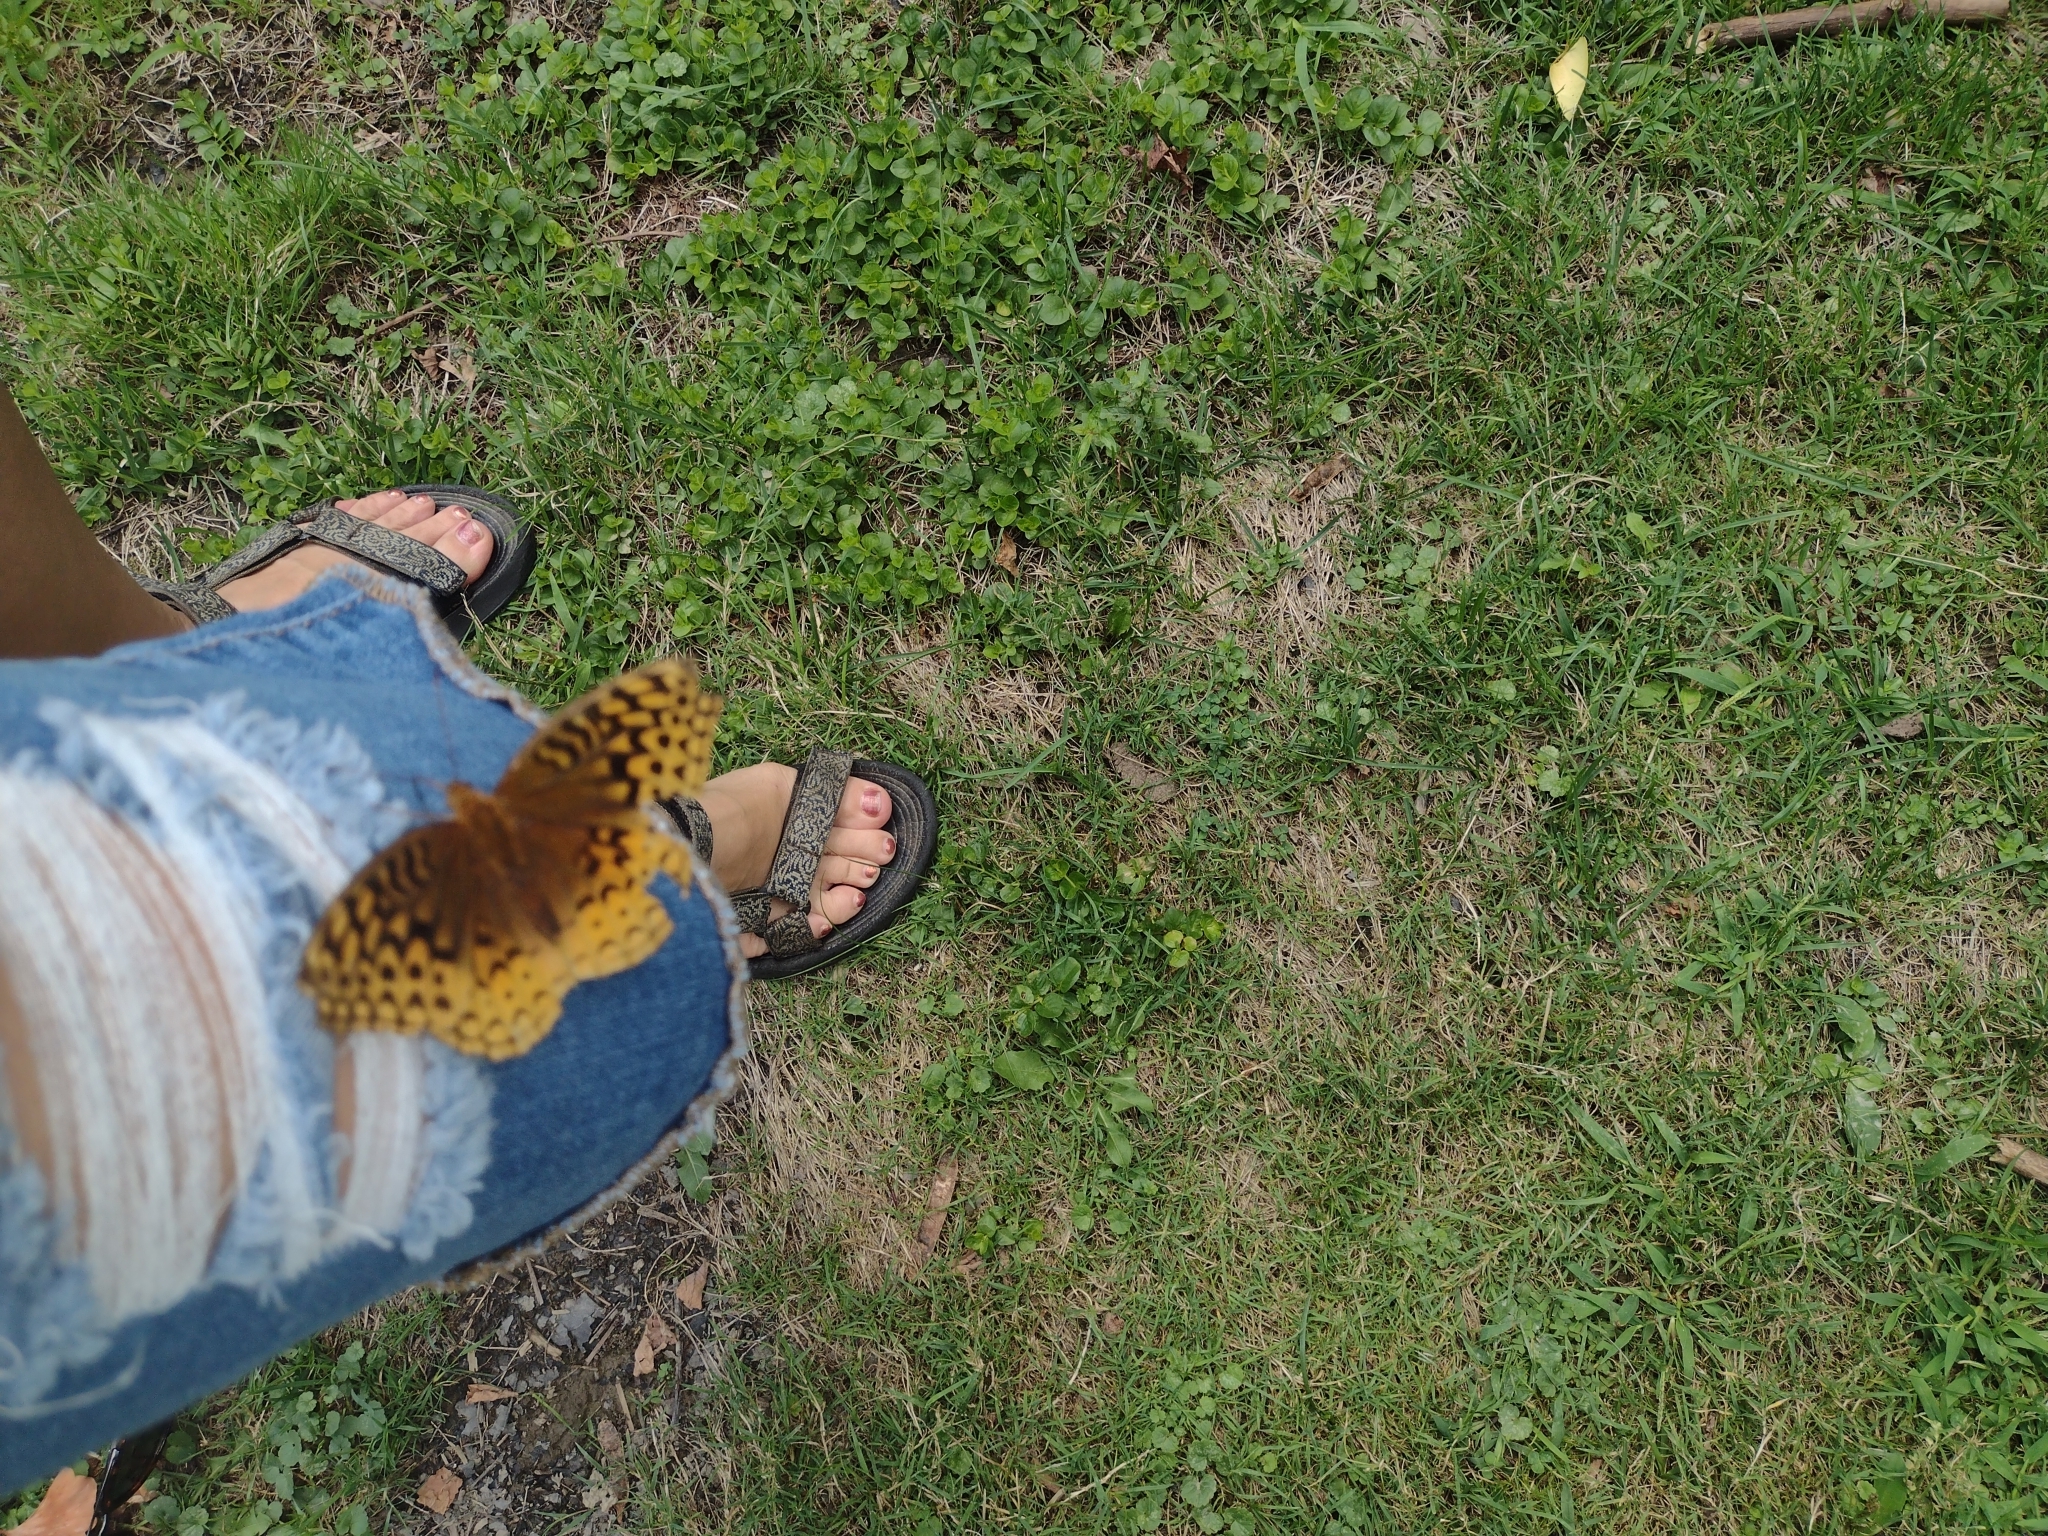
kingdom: Animalia
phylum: Arthropoda
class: Insecta
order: Lepidoptera
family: Nymphalidae
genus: Speyeria
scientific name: Speyeria cybele
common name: Great spangled fritillary
